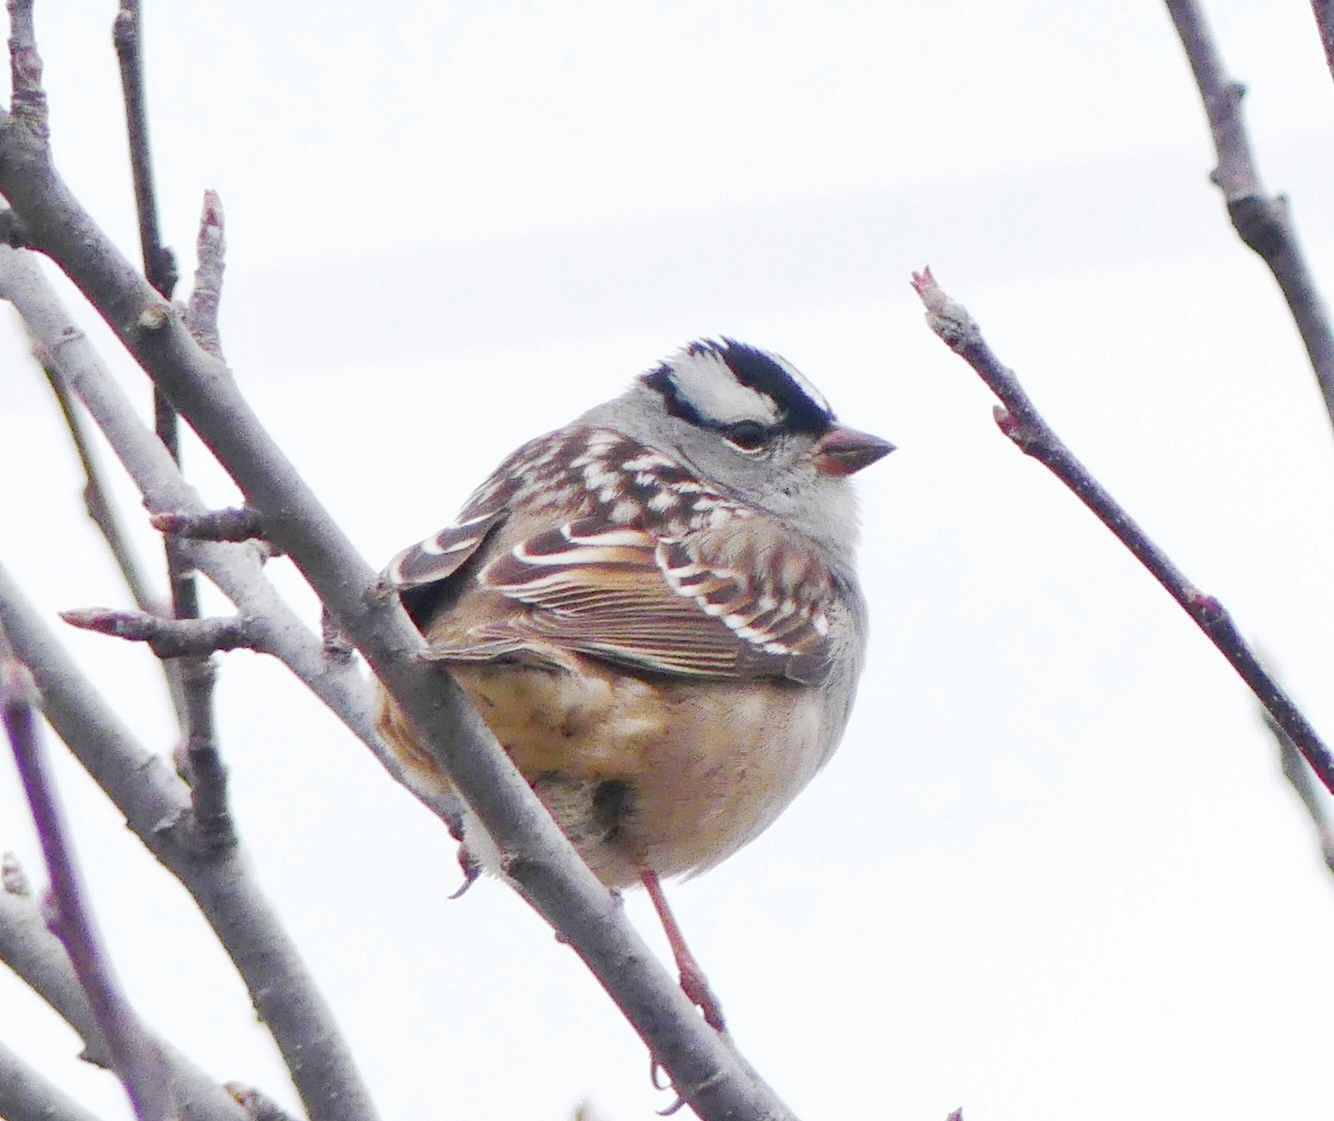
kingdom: Animalia
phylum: Chordata
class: Aves
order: Passeriformes
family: Passerellidae
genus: Zonotrichia
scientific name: Zonotrichia leucophrys
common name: White-crowned sparrow
